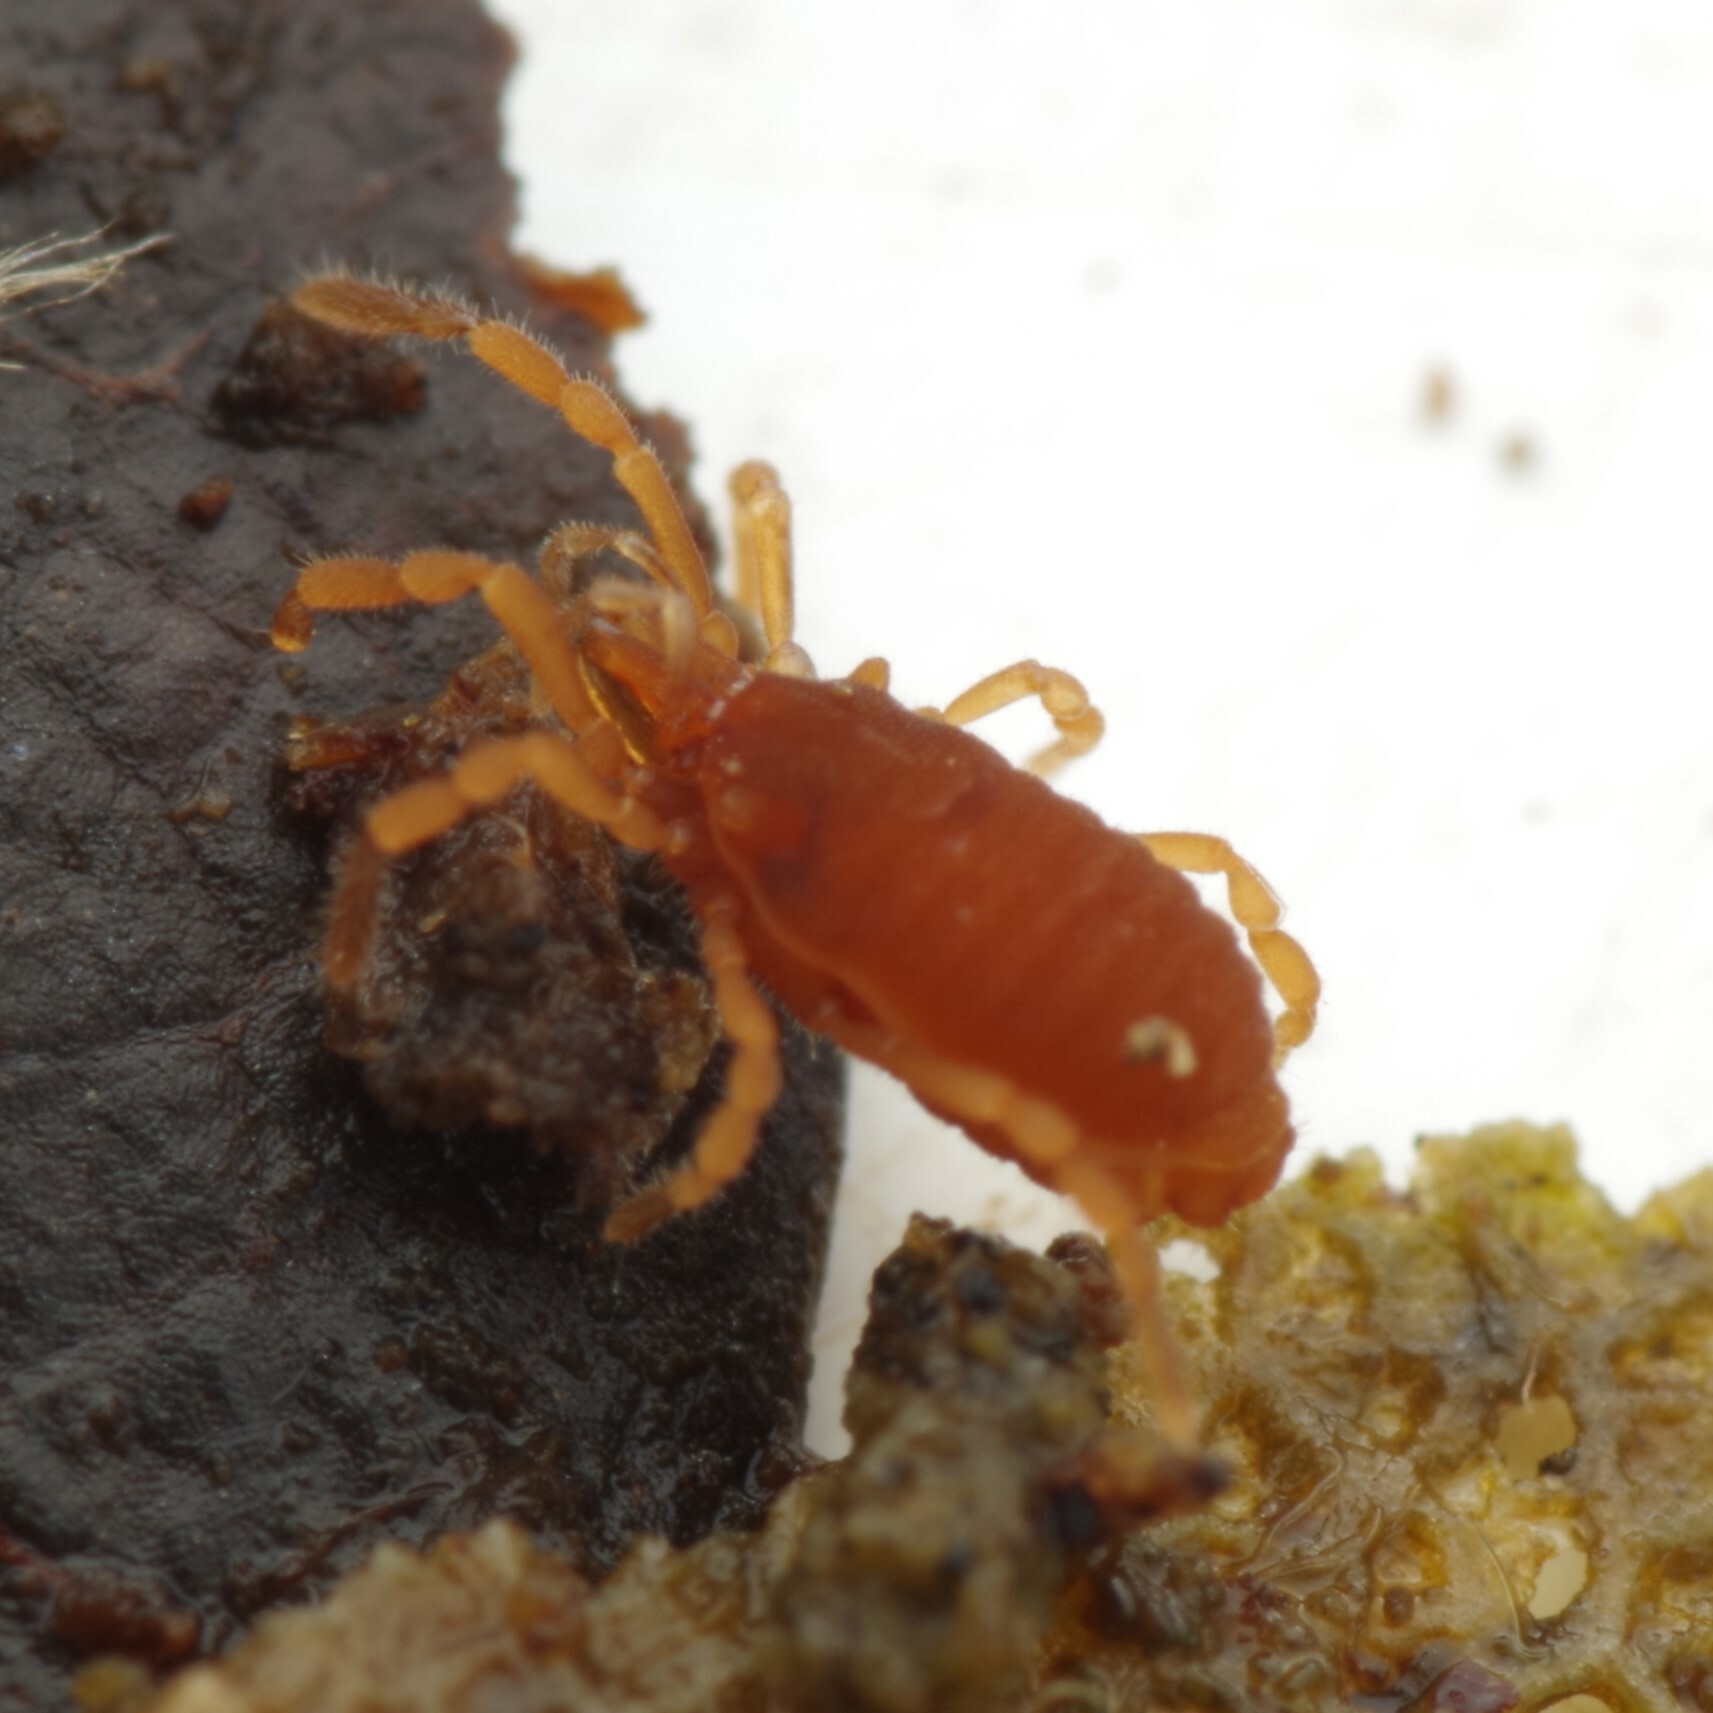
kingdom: Animalia
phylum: Arthropoda
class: Arachnida
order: Opiliones
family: Sironidae
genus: Siro
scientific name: Siro rubens
